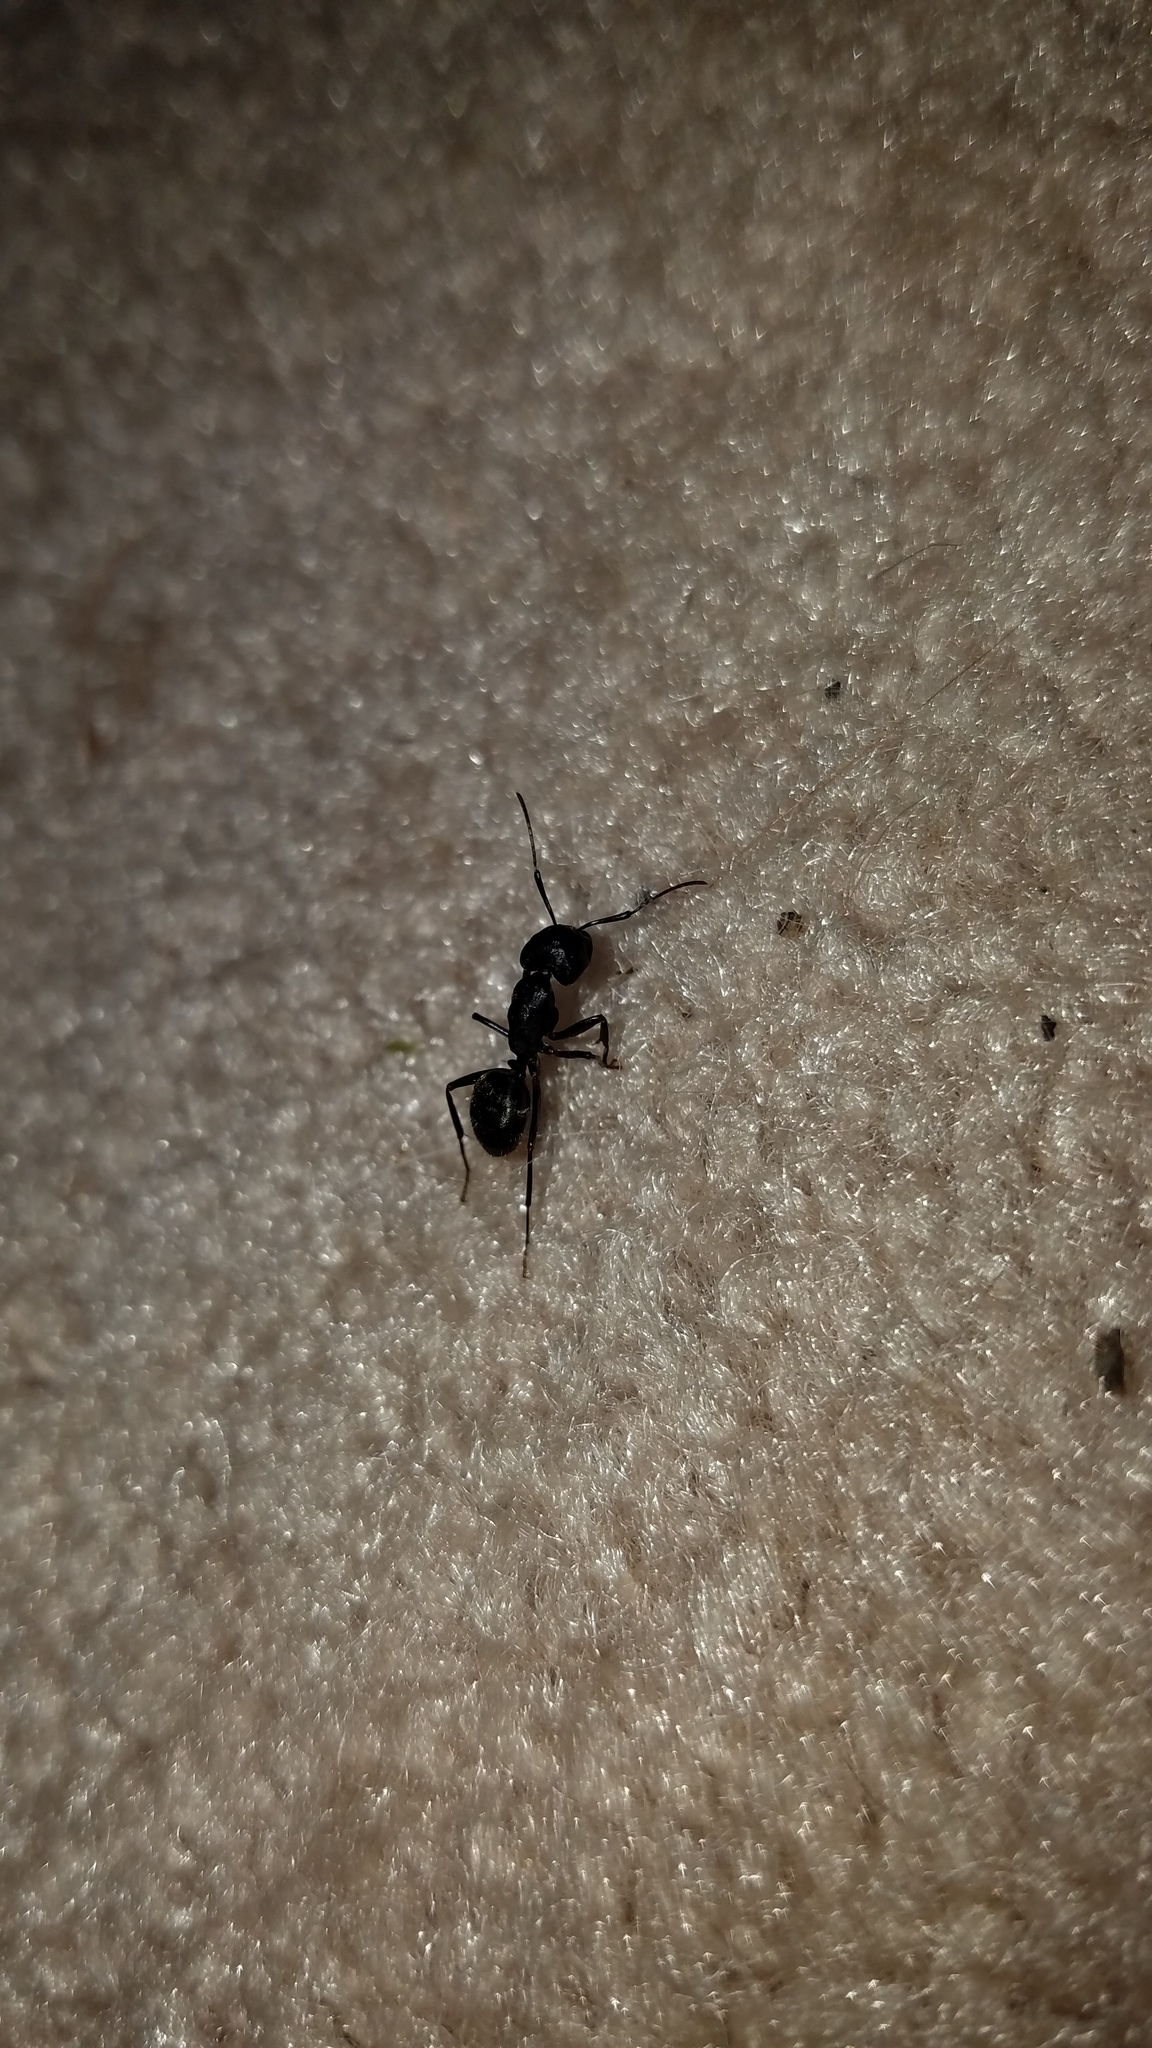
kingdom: Animalia
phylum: Arthropoda
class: Insecta
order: Hymenoptera
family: Formicidae
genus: Camponotus
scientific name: Camponotus pennsylvanicus
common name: Black carpenter ant
